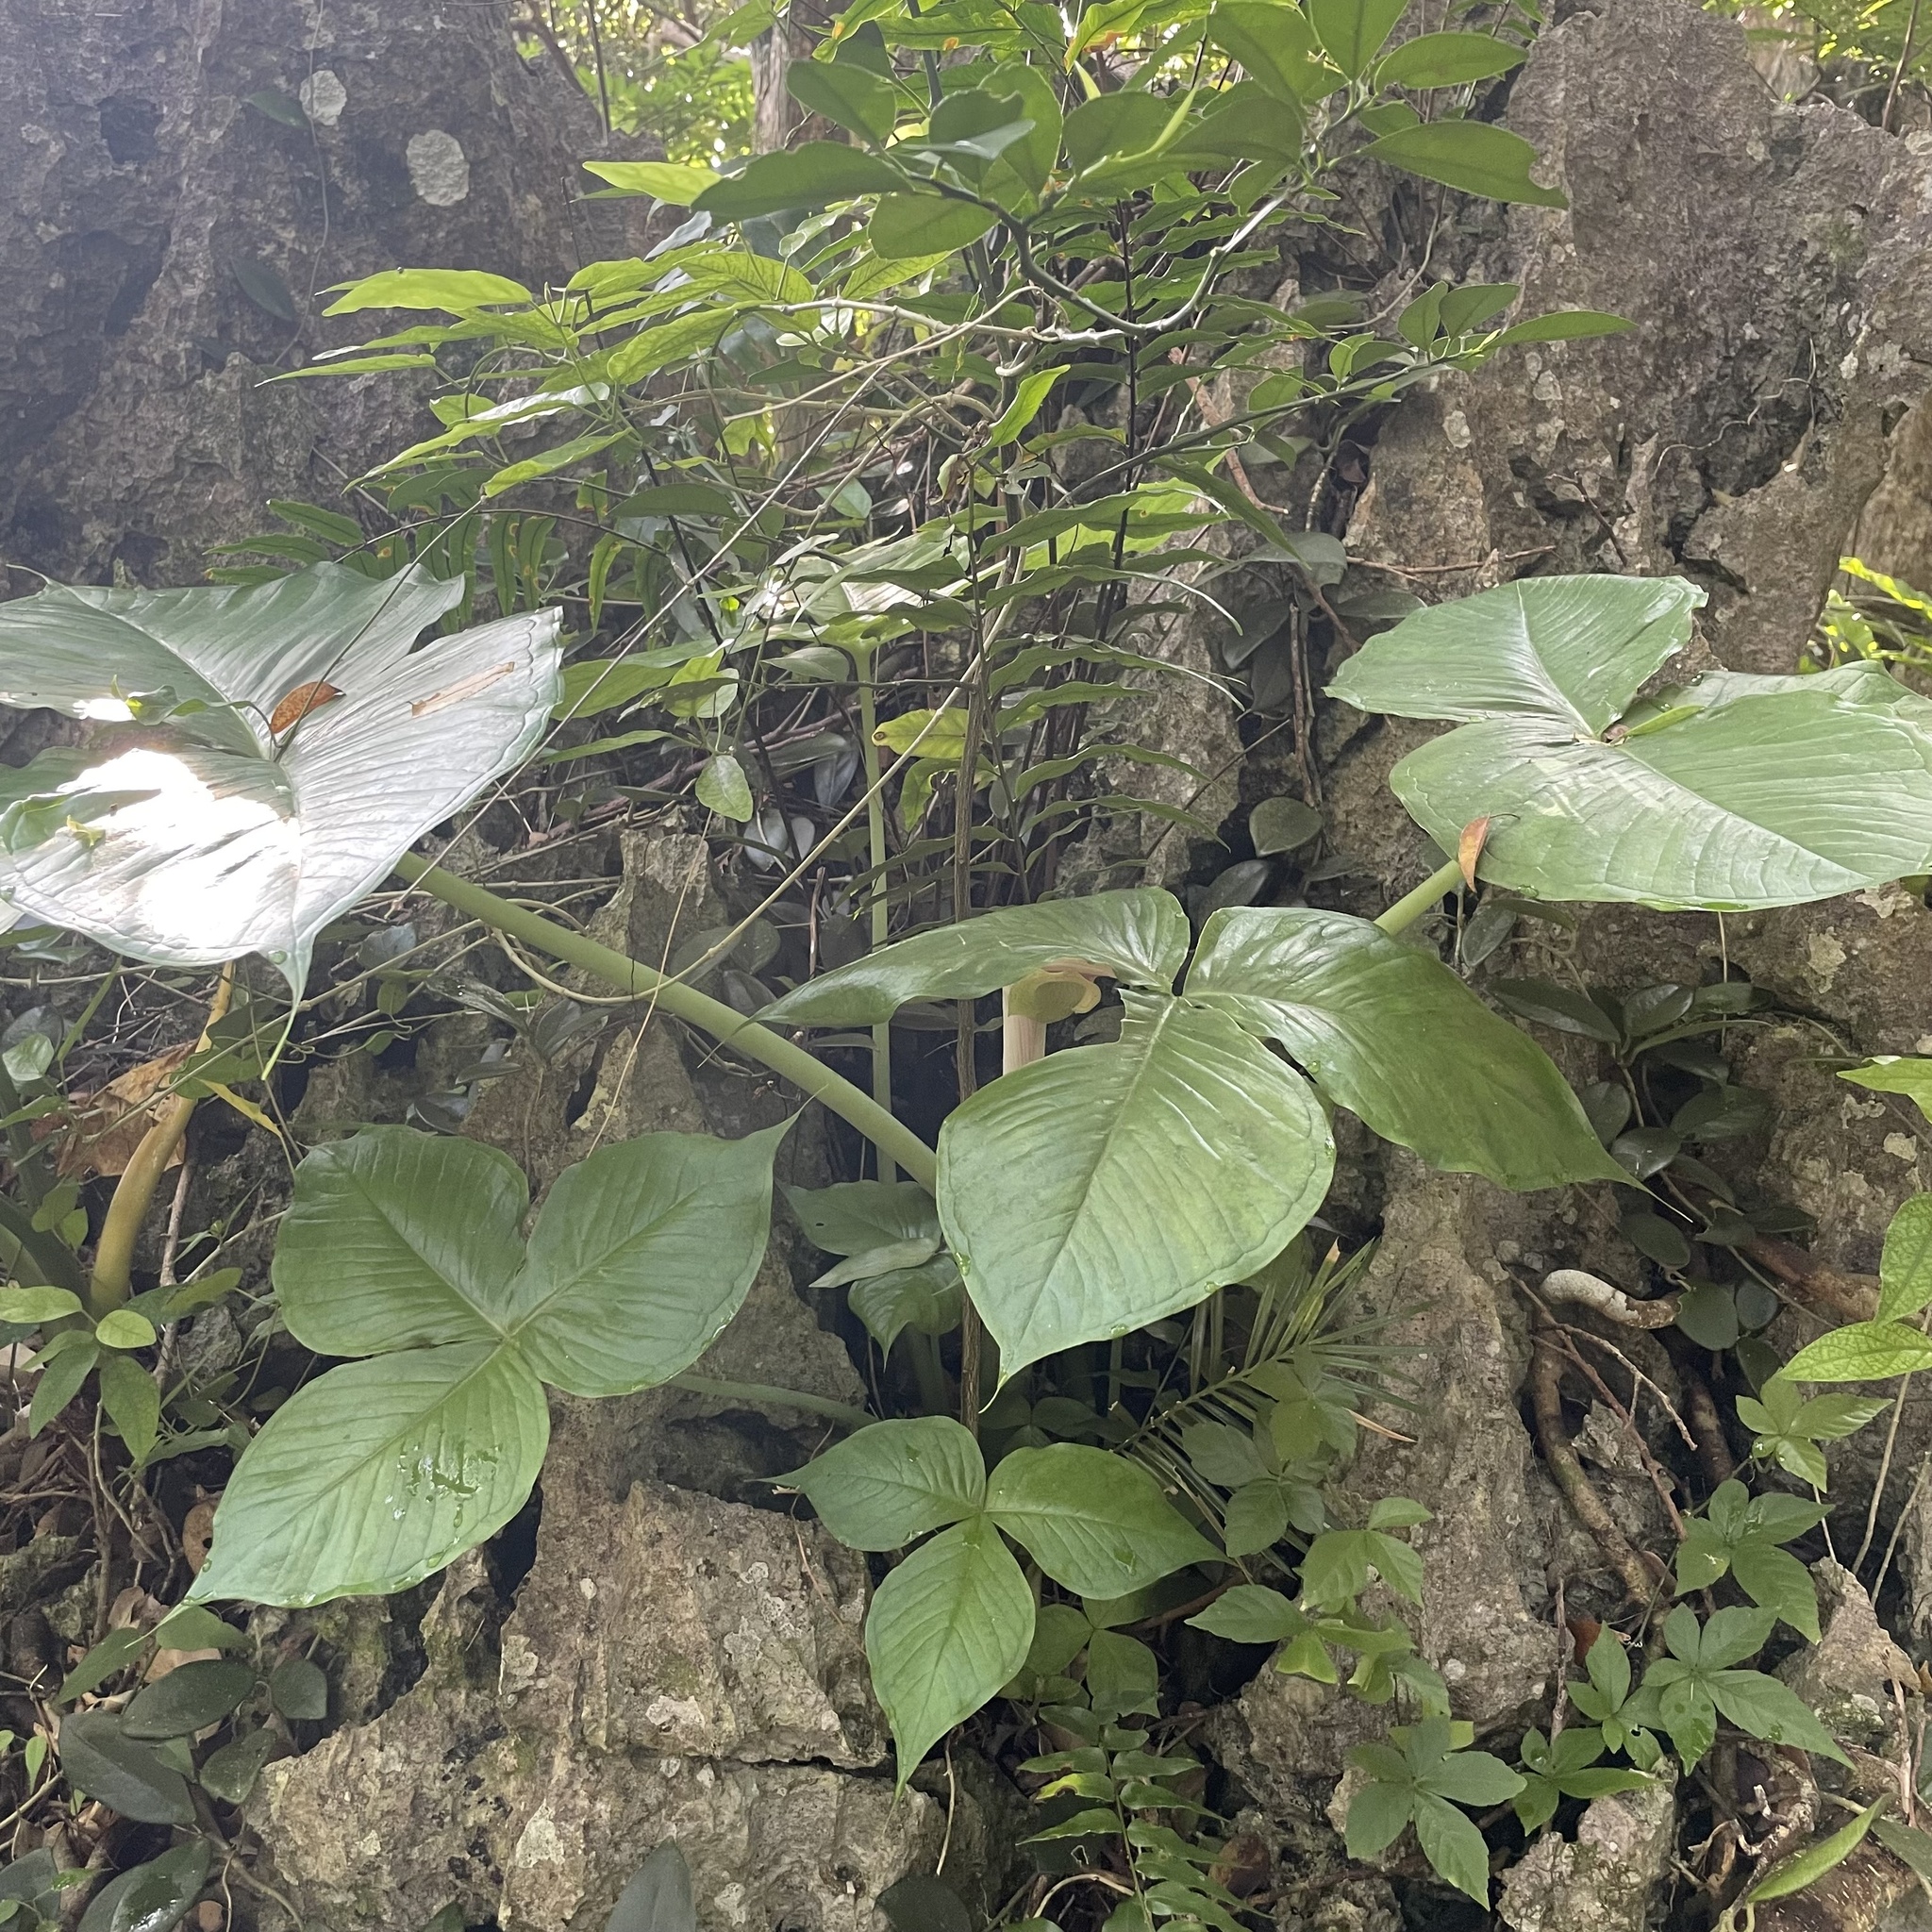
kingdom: Plantae
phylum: Tracheophyta
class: Liliopsida
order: Alismatales
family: Araceae
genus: Arisaema
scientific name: Arisaema ringens
